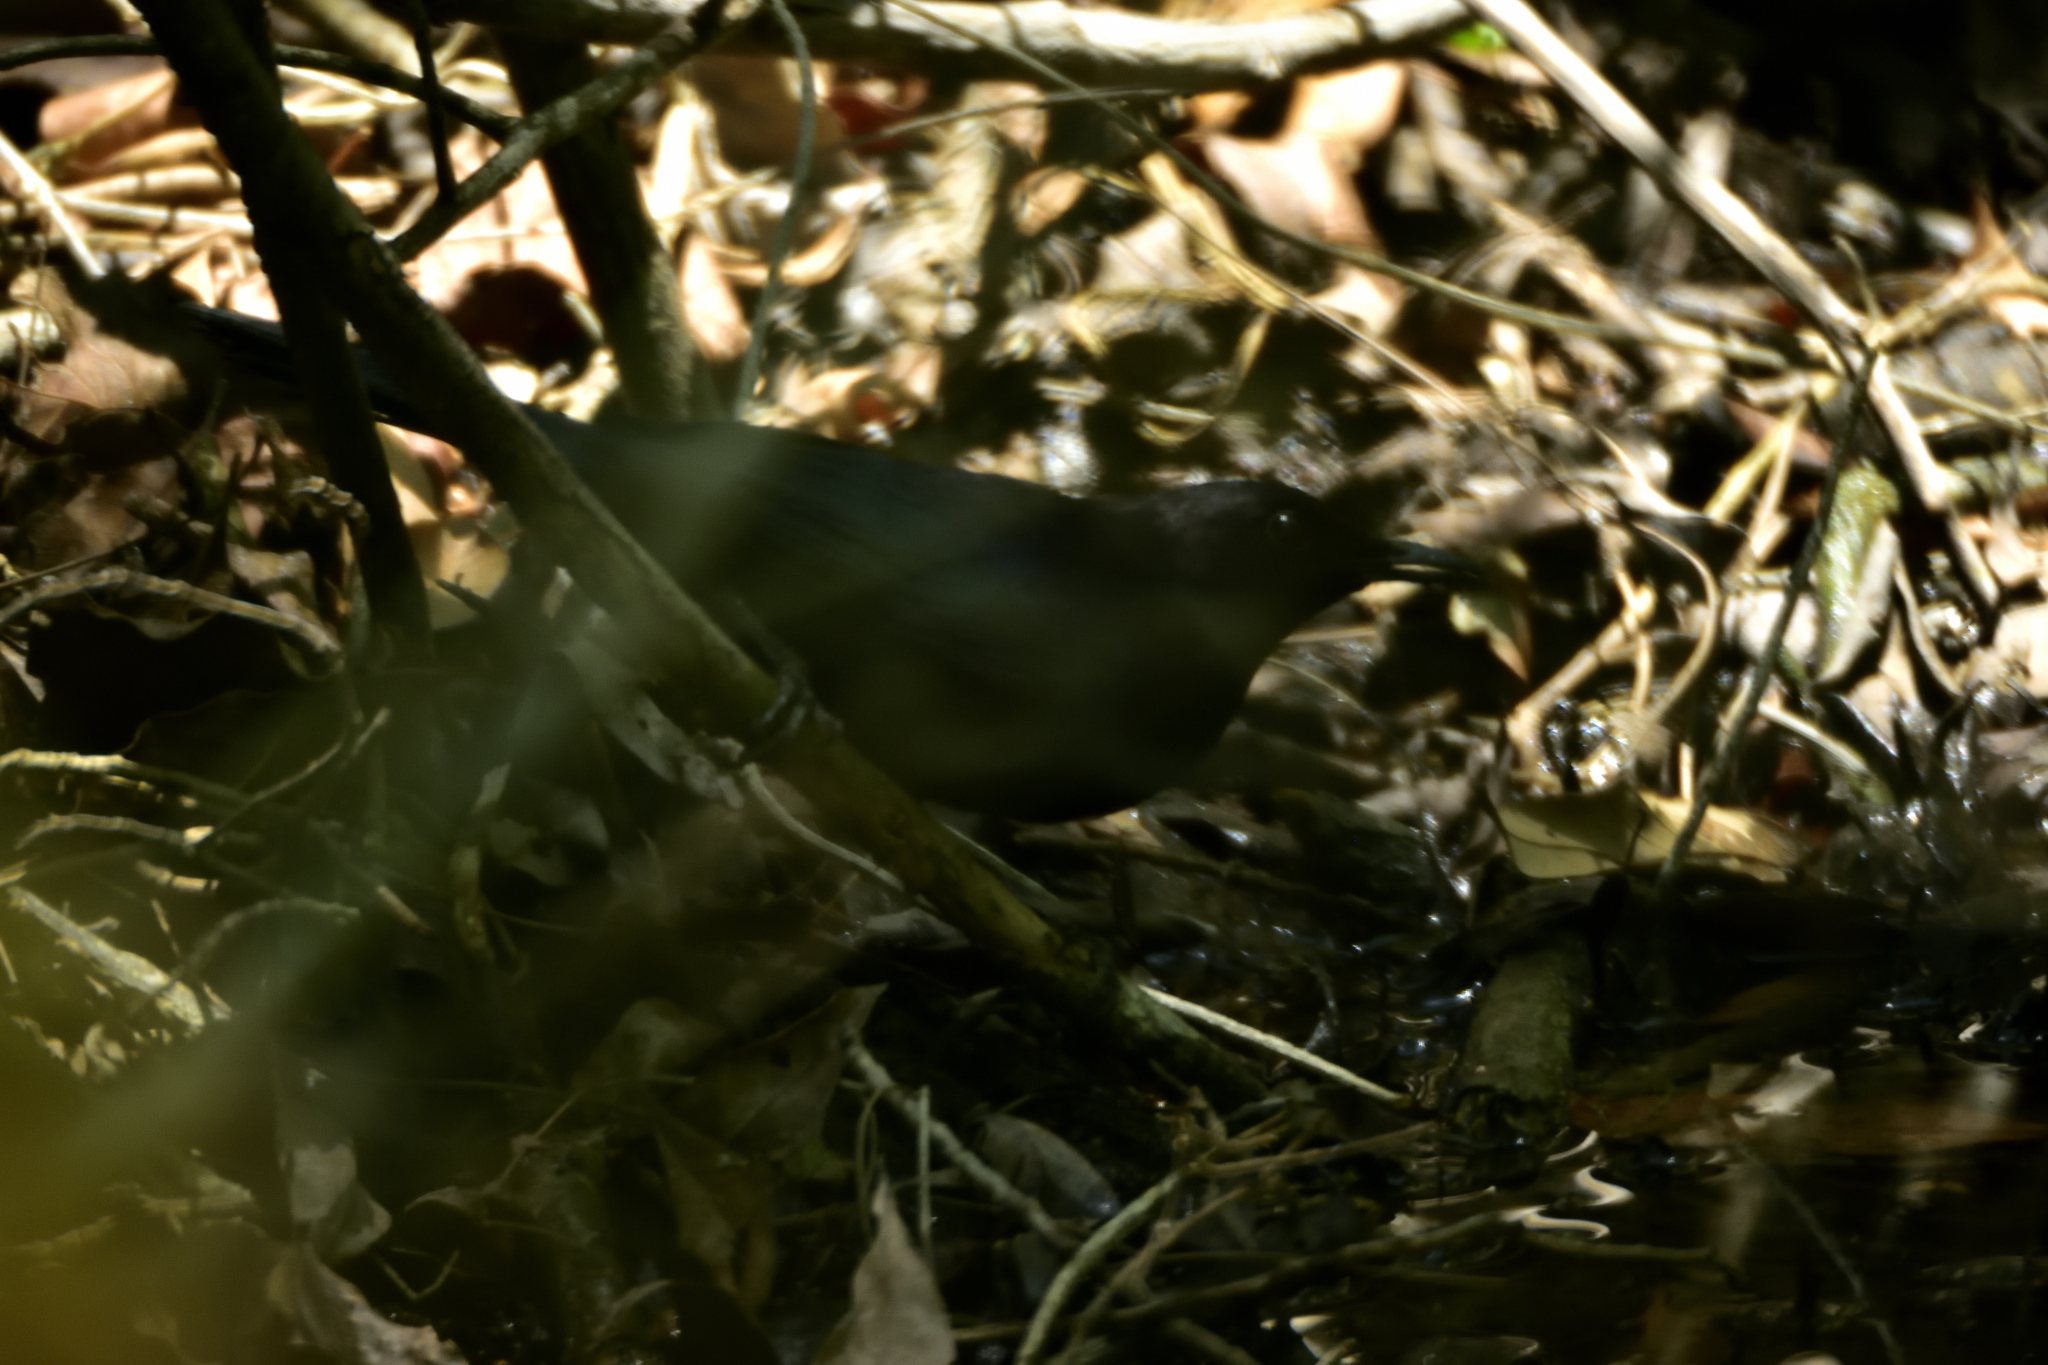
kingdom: Animalia
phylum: Chordata
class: Aves
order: Passeriformes
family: Icteridae
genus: Dives
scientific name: Dives dives
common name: Melodious blackbird
